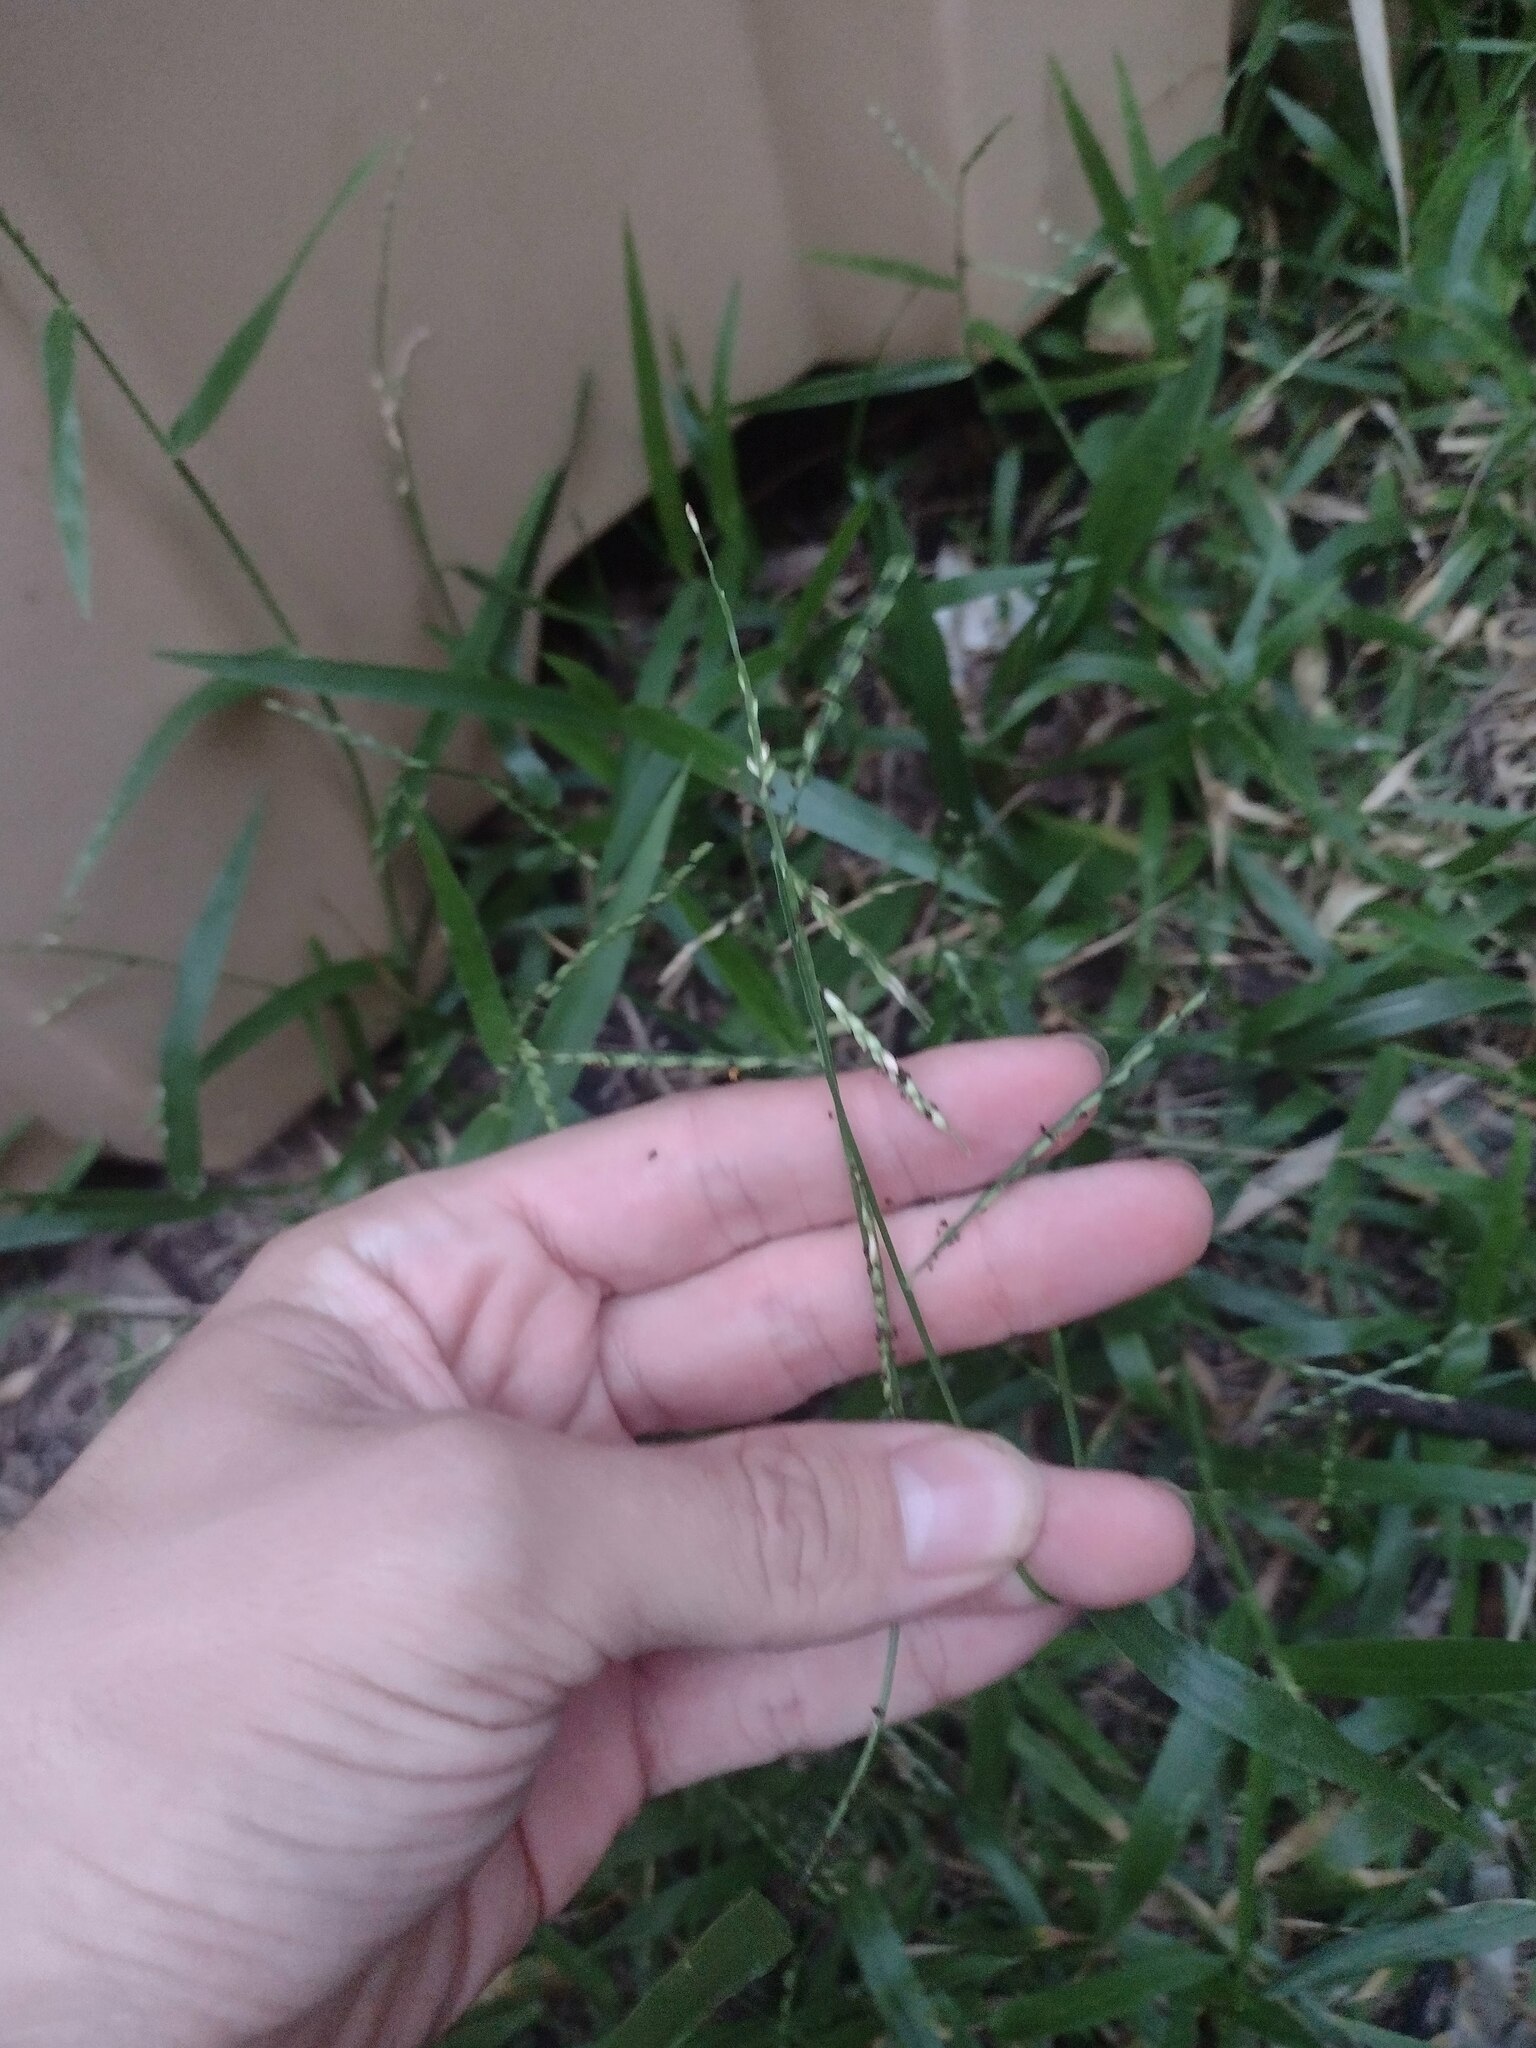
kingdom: Plantae
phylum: Tracheophyta
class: Liliopsida
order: Poales
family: Poaceae
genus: Urochloa
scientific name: Urochloa distachyos
